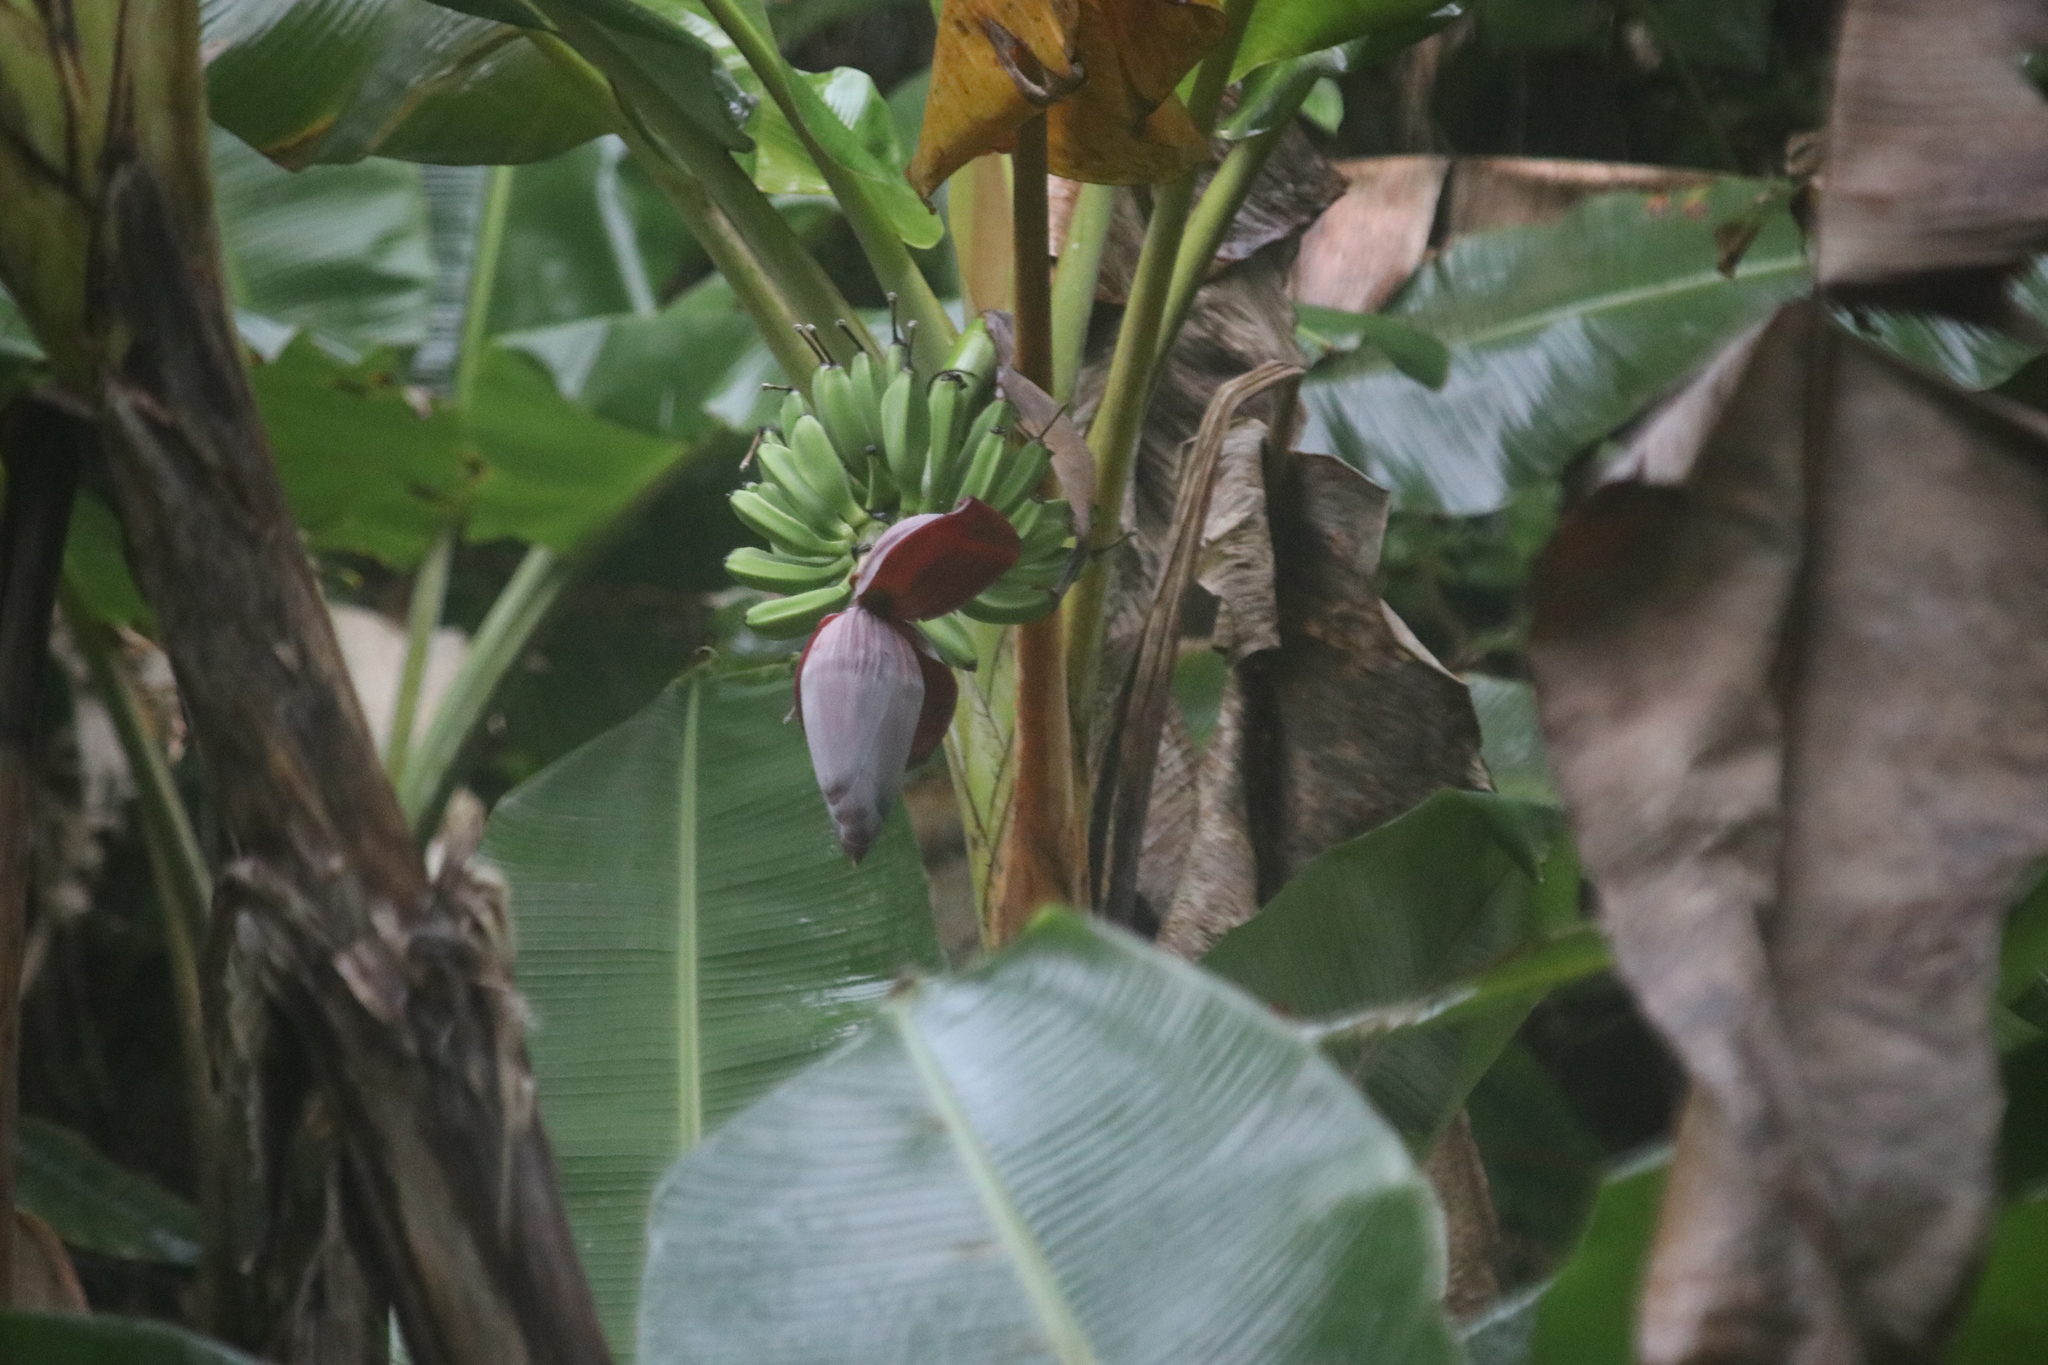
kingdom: Plantae
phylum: Tracheophyta
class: Liliopsida
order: Zingiberales
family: Musaceae
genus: Musa
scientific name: Musa paradisiaca
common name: French plantain
